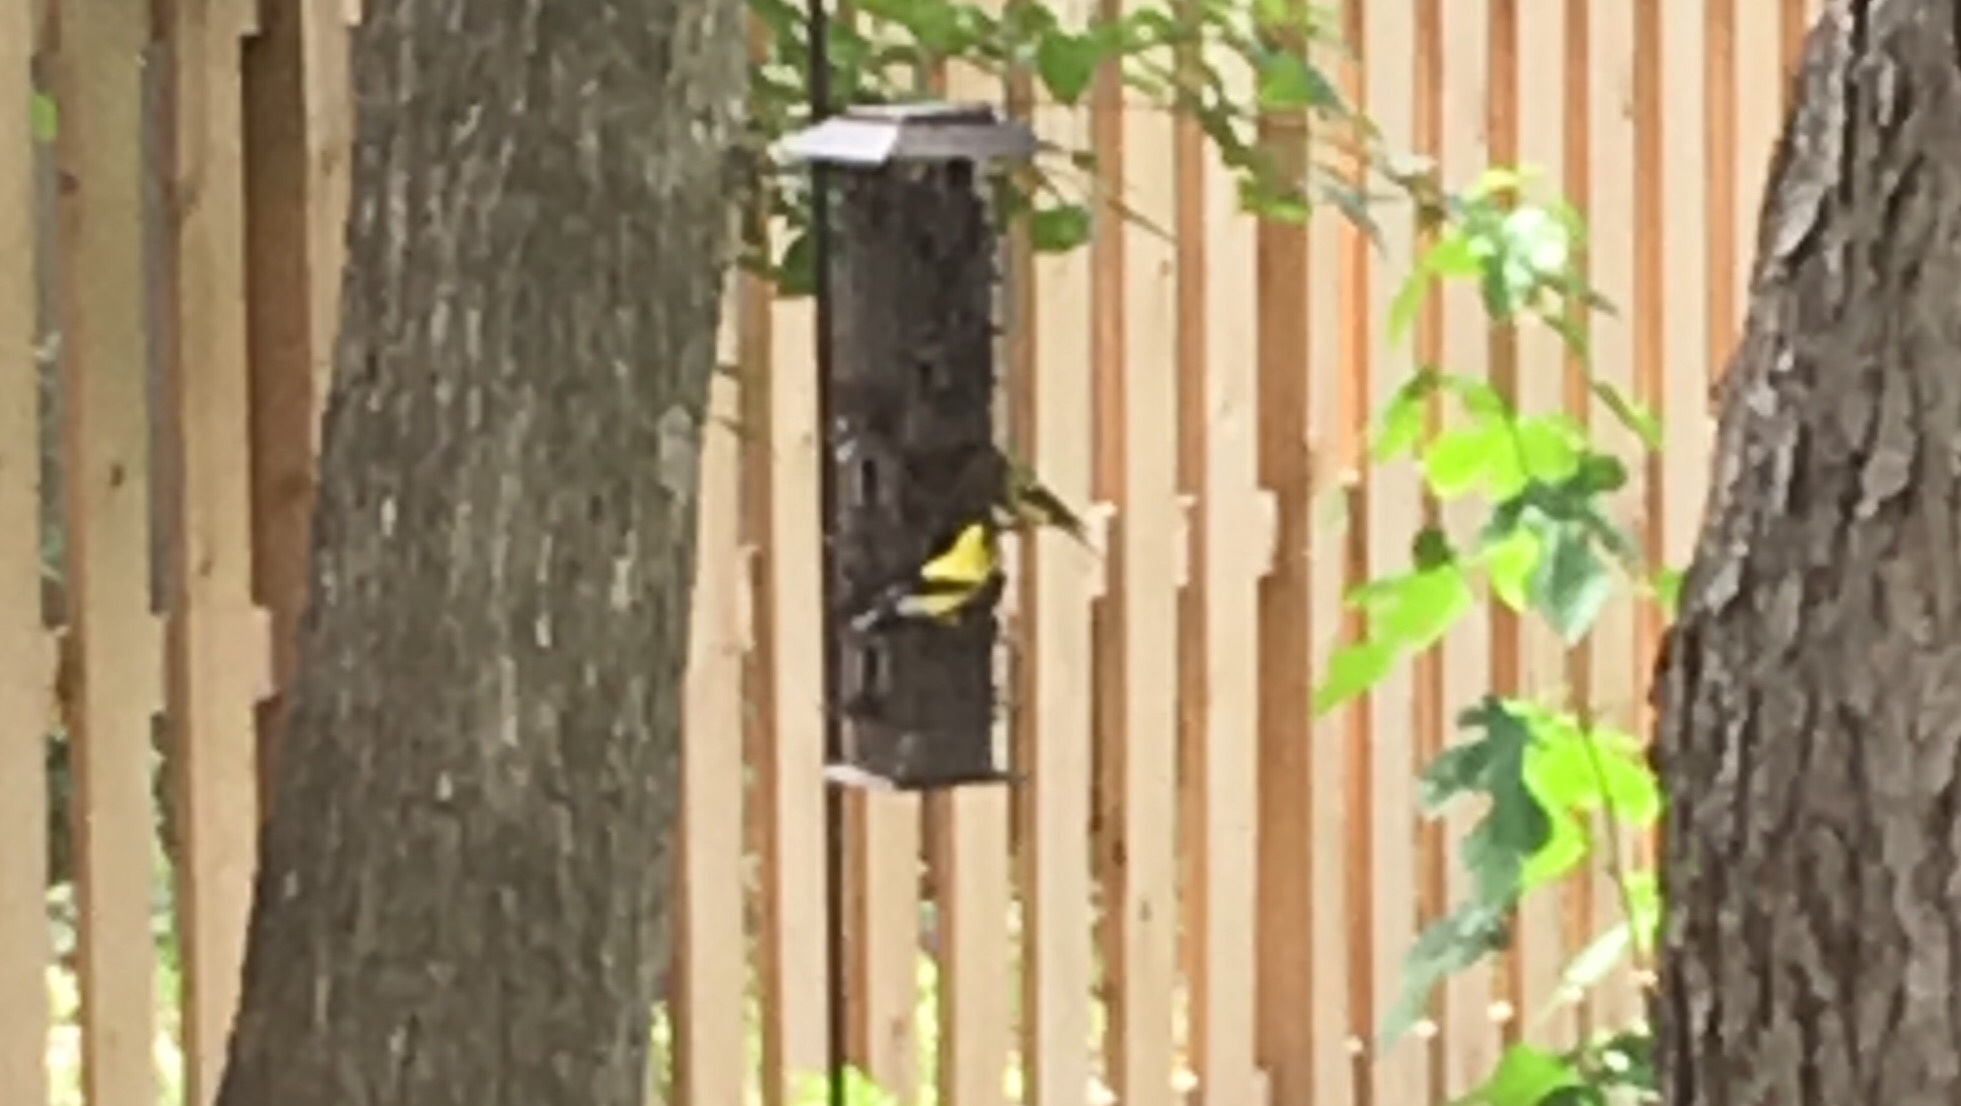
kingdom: Animalia
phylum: Chordata
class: Aves
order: Passeriformes
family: Fringillidae
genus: Spinus
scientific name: Spinus tristis
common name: American goldfinch
